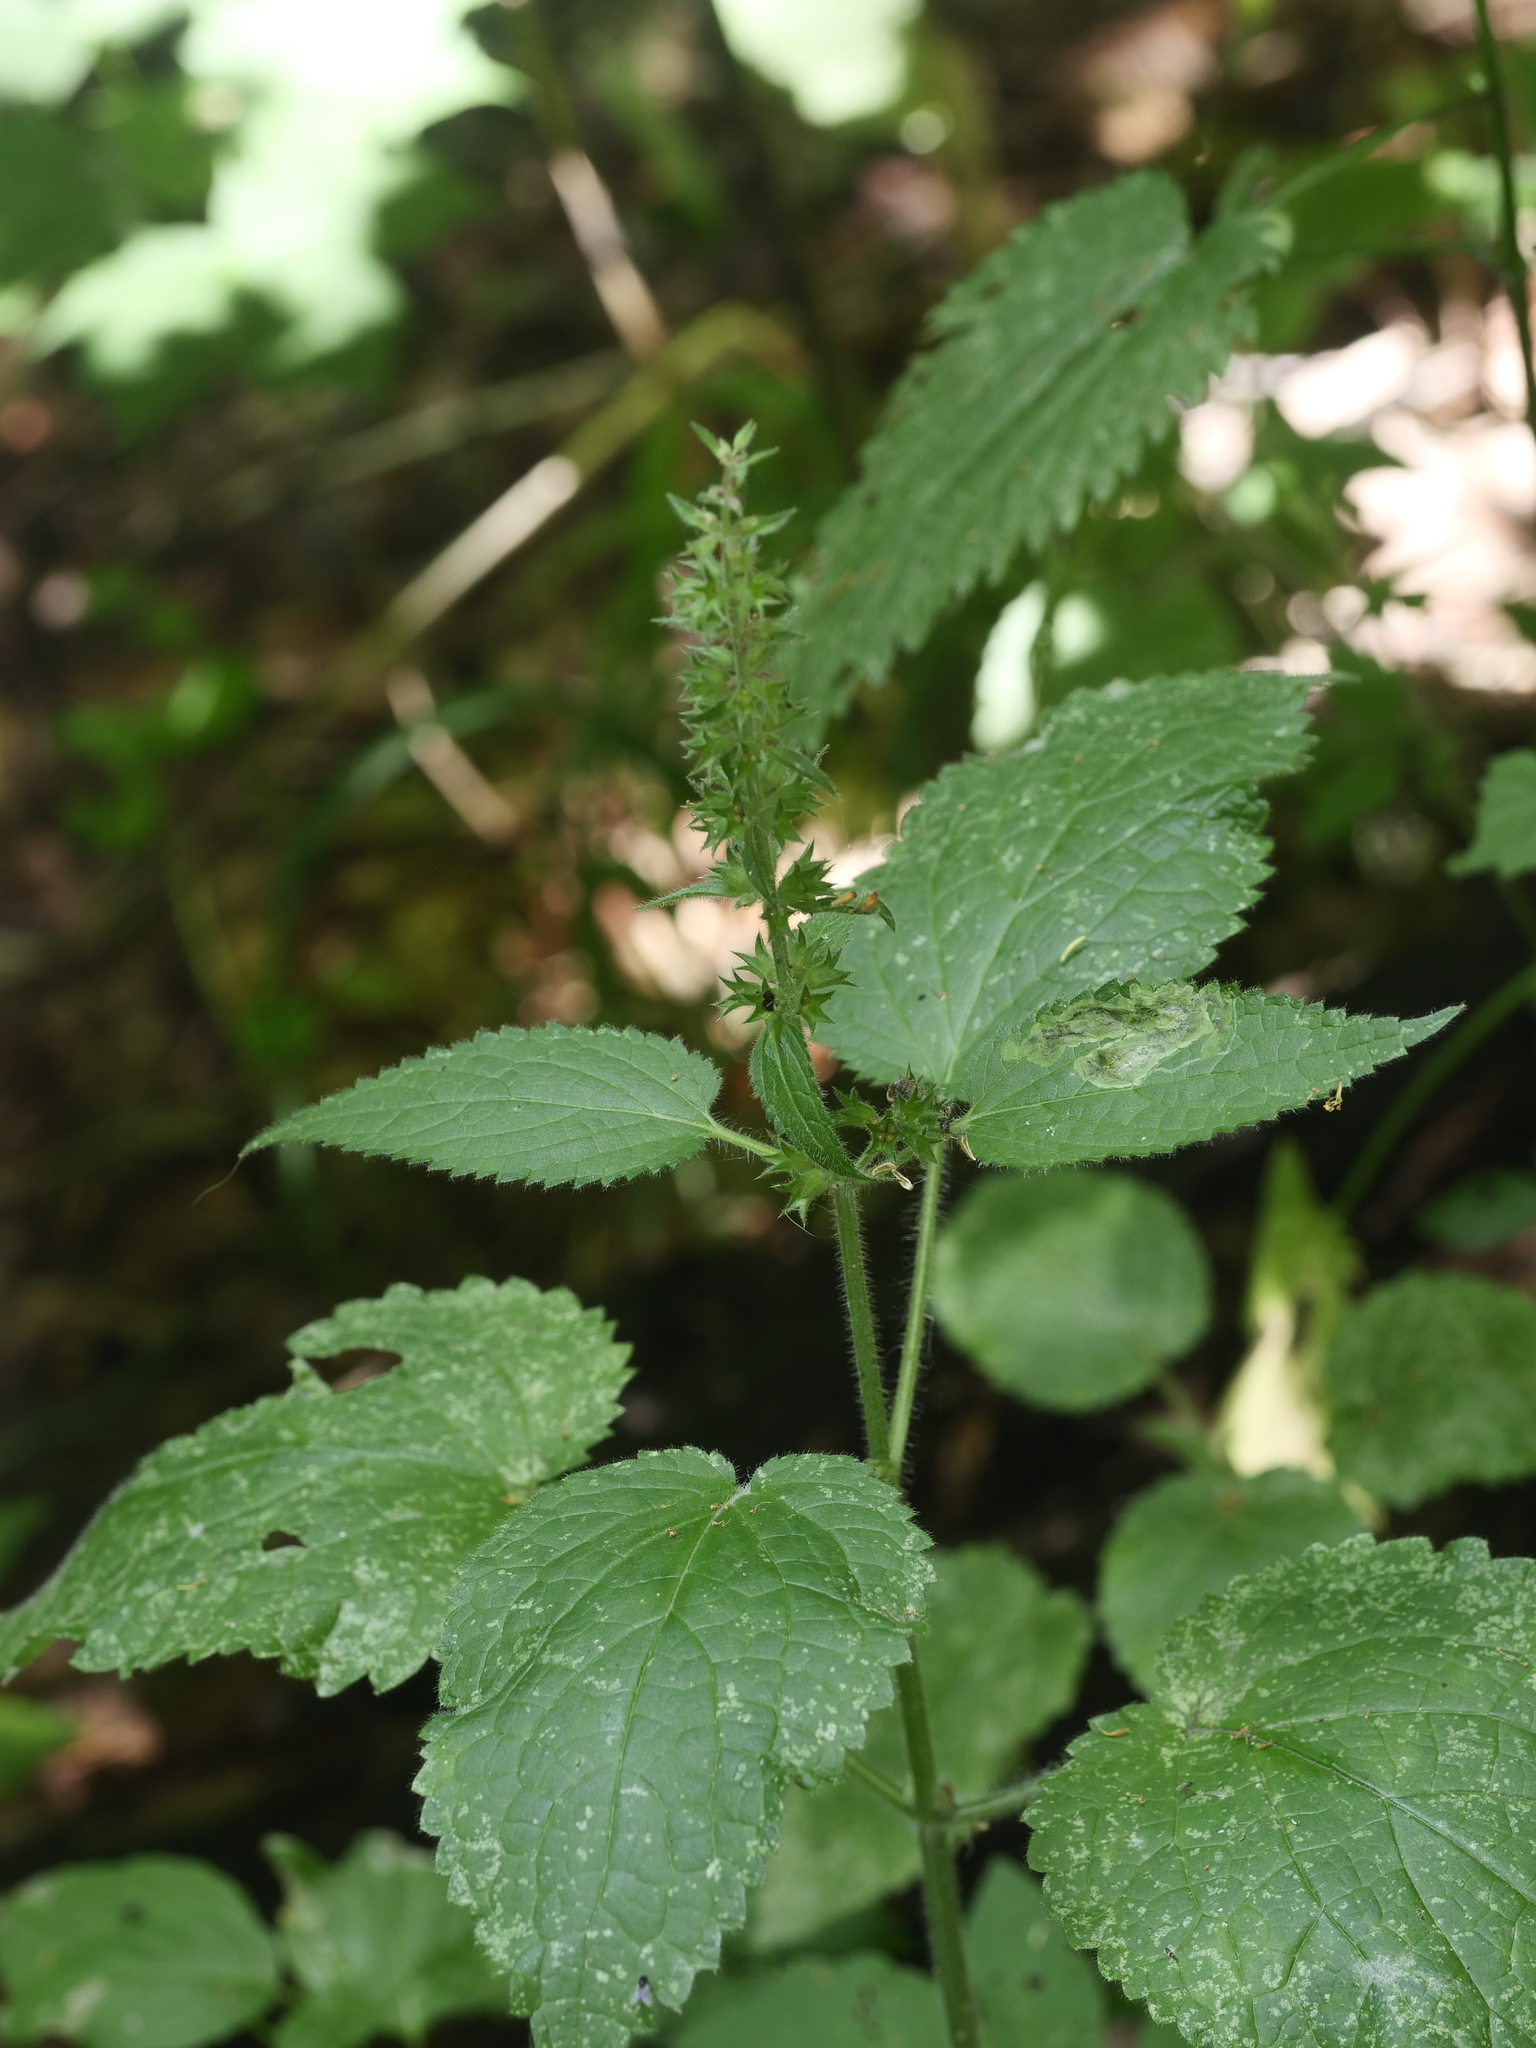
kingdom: Plantae
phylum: Tracheophyta
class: Magnoliopsida
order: Lamiales
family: Lamiaceae
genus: Stachys
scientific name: Stachys sylvatica
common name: Hedge woundwort
